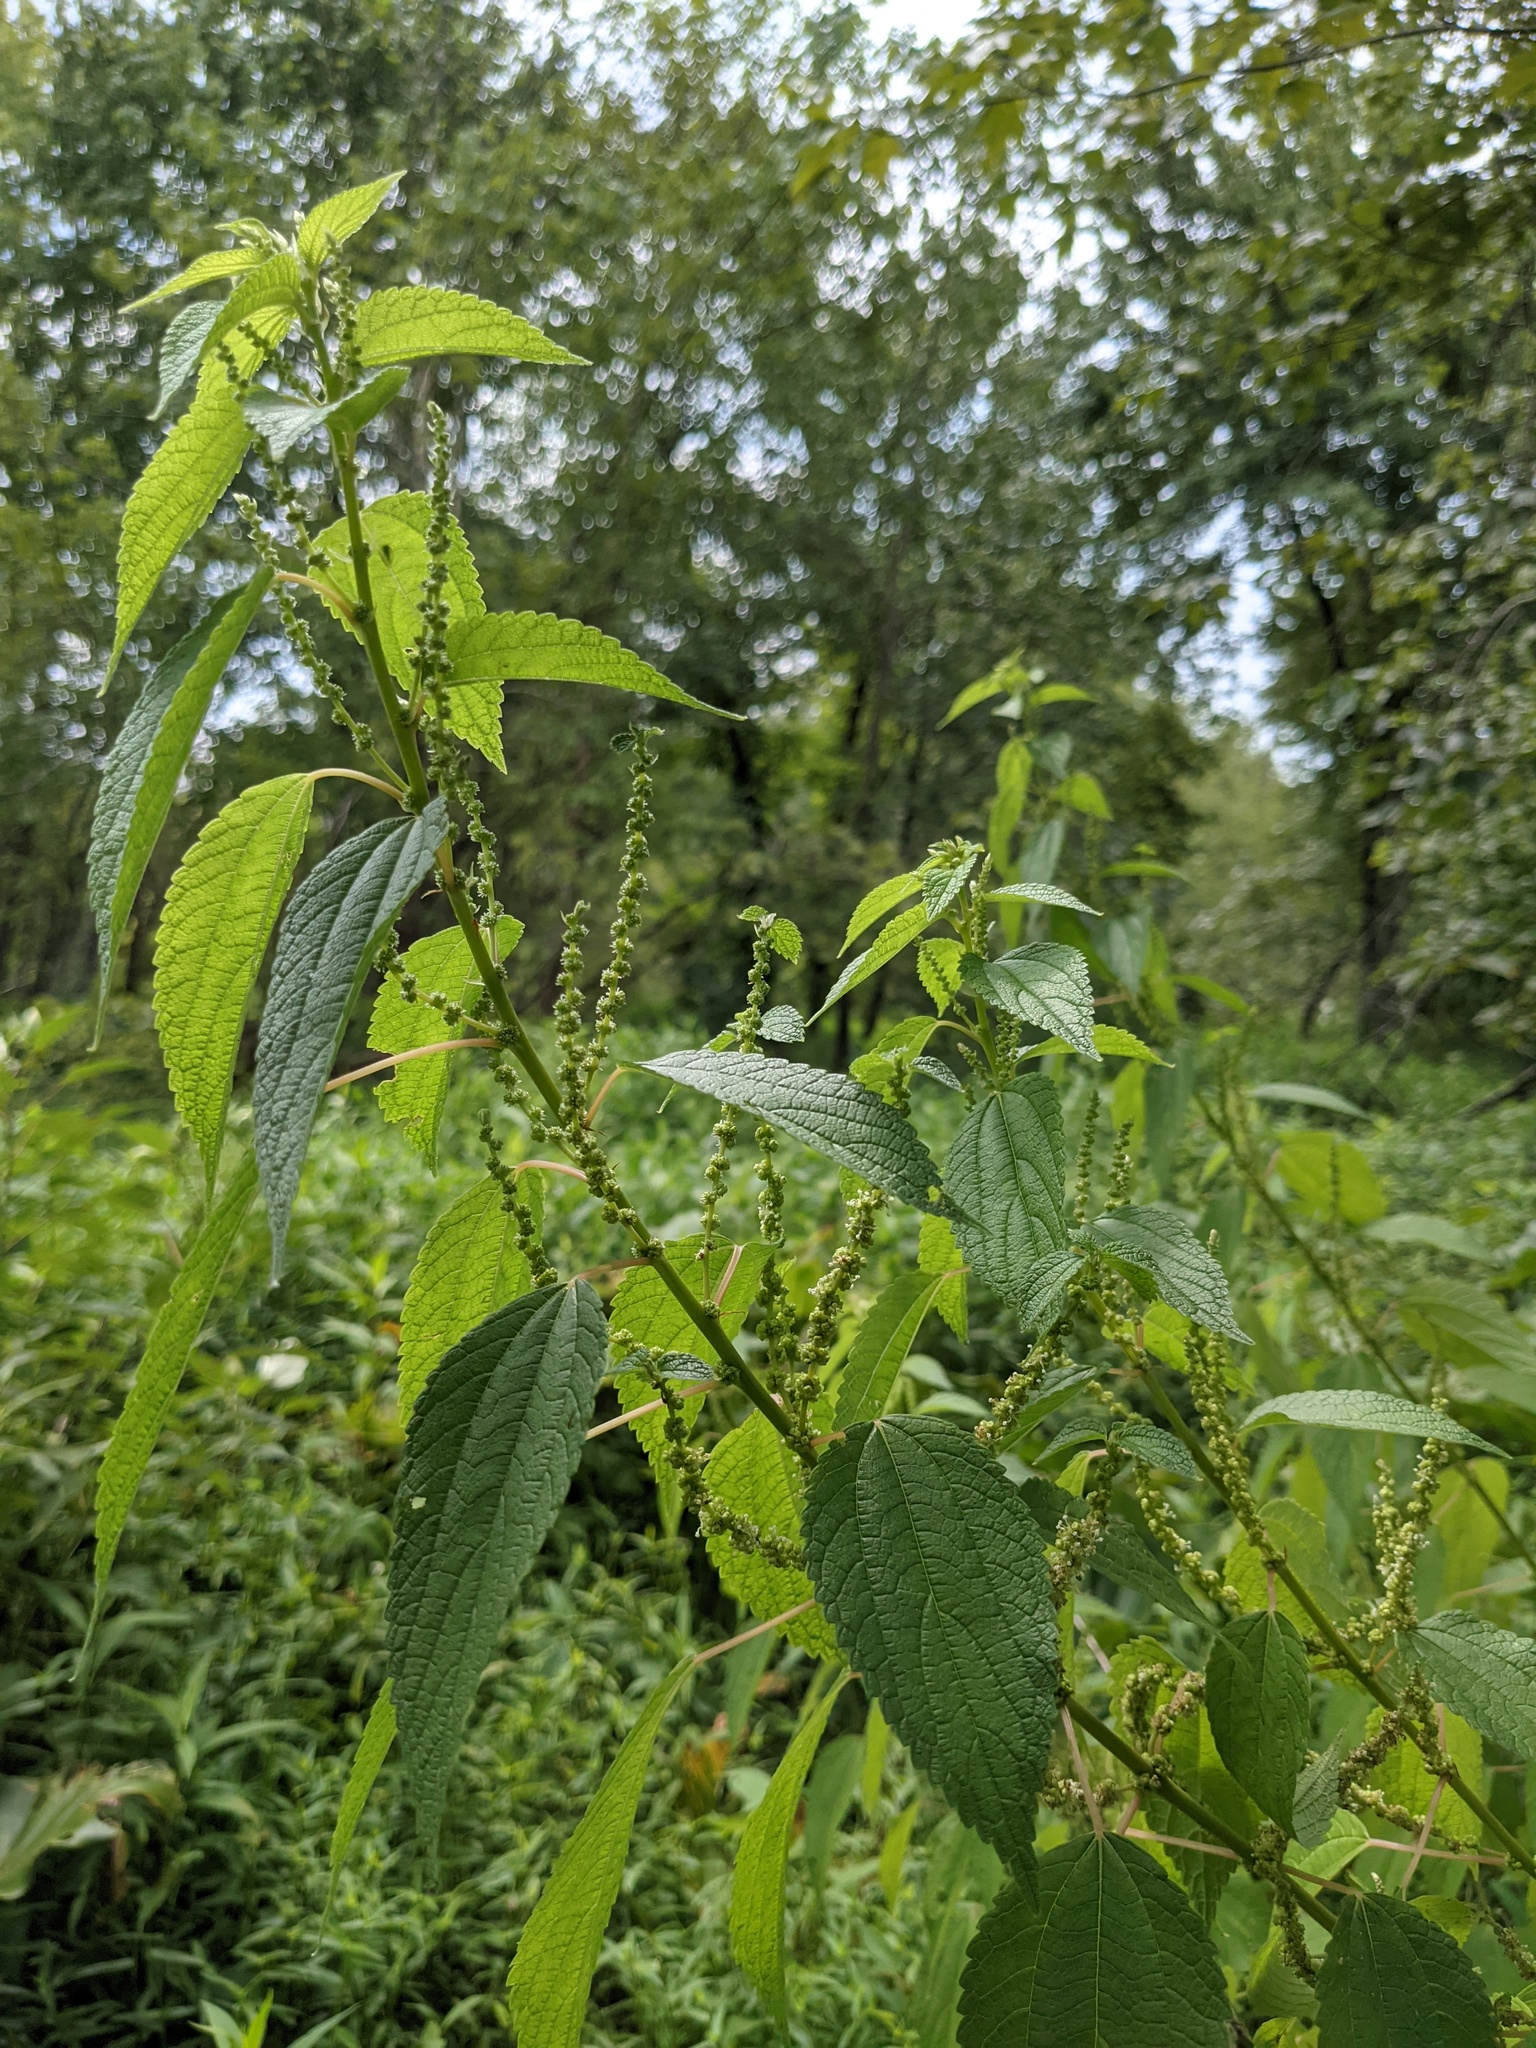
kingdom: Plantae
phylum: Tracheophyta
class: Magnoliopsida
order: Rosales
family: Urticaceae
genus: Boehmeria
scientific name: Boehmeria cylindrica
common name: Bog-hemp
